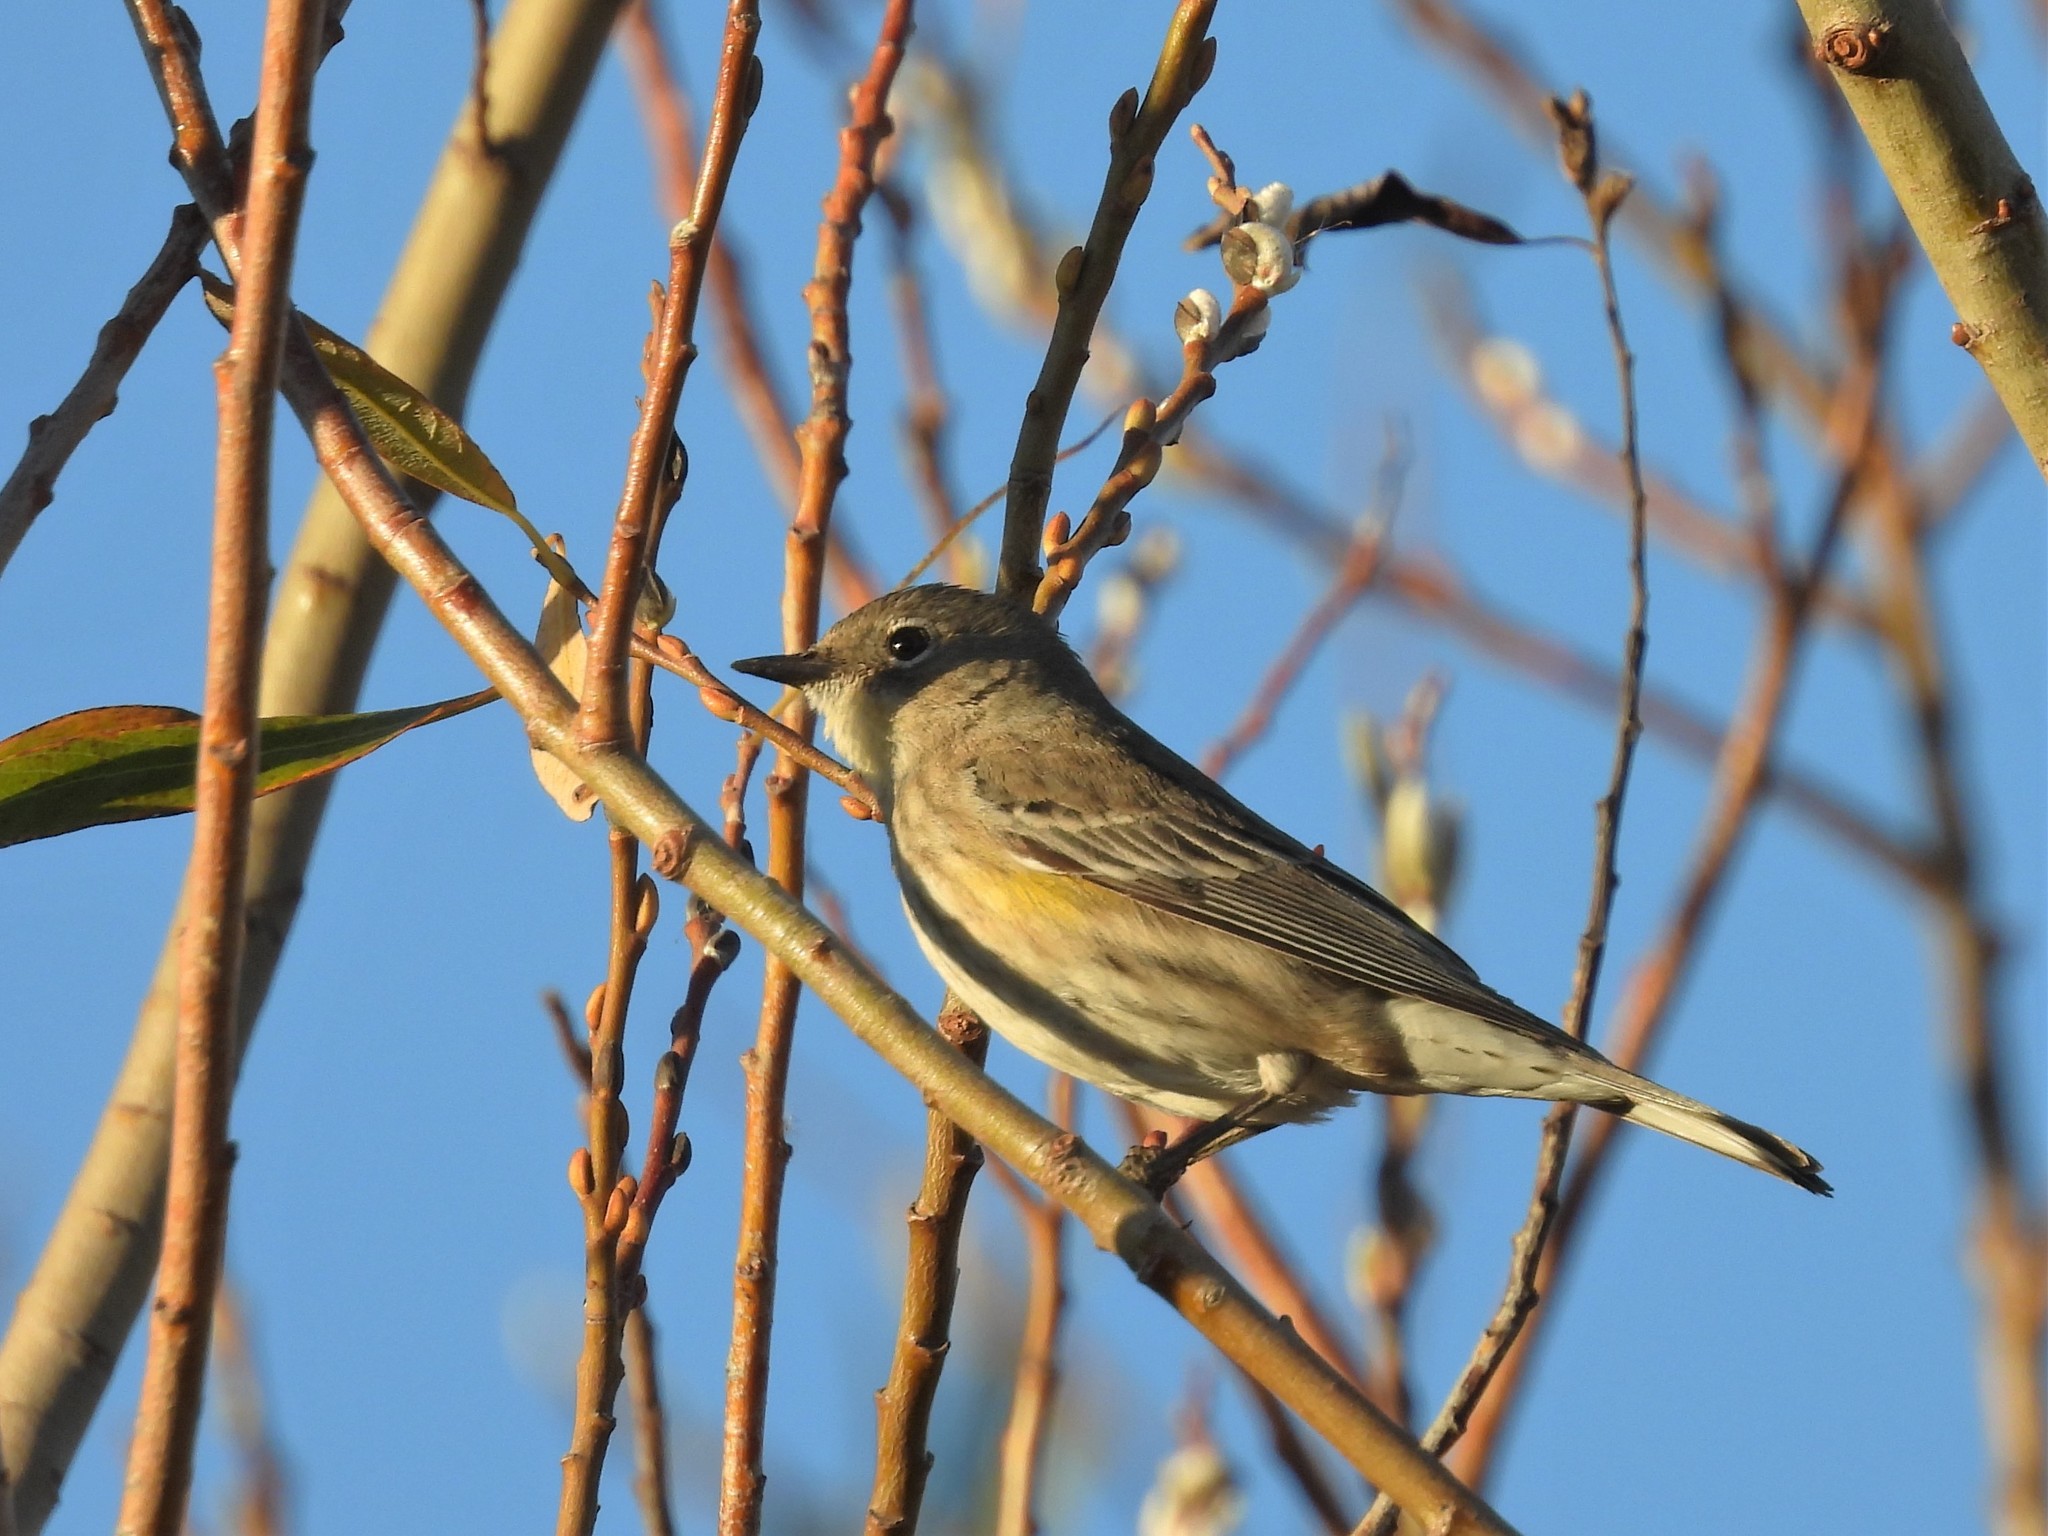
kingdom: Animalia
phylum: Chordata
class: Aves
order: Passeriformes
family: Parulidae
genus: Setophaga
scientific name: Setophaga coronata
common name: Myrtle warbler
